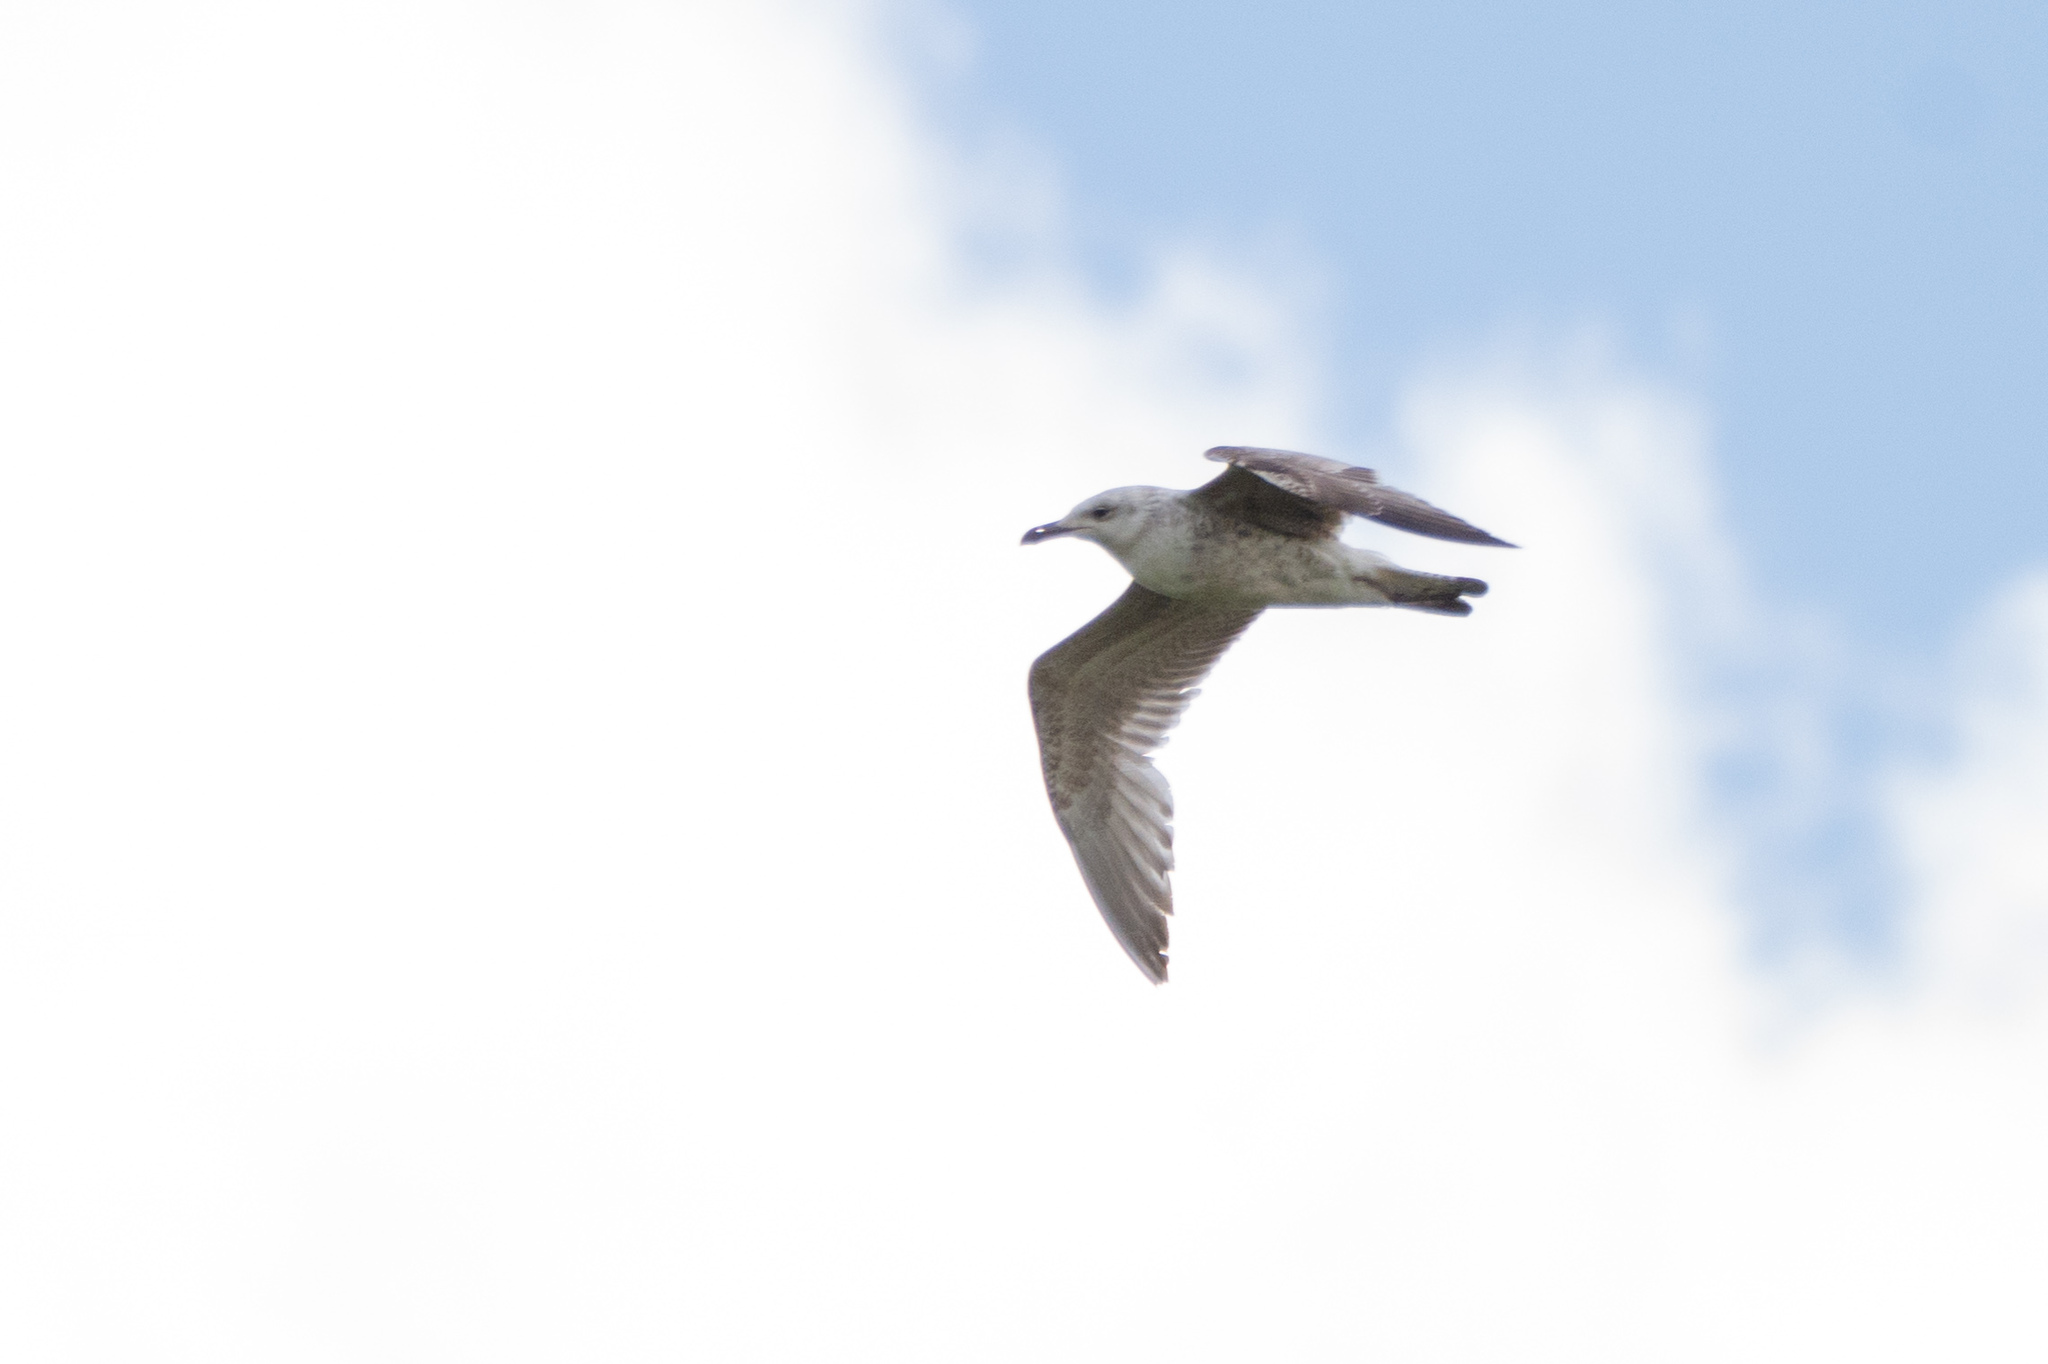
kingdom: Animalia
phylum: Chordata
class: Aves
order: Charadriiformes
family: Laridae
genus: Larus
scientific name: Larus cachinnans
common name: Caspian gull
